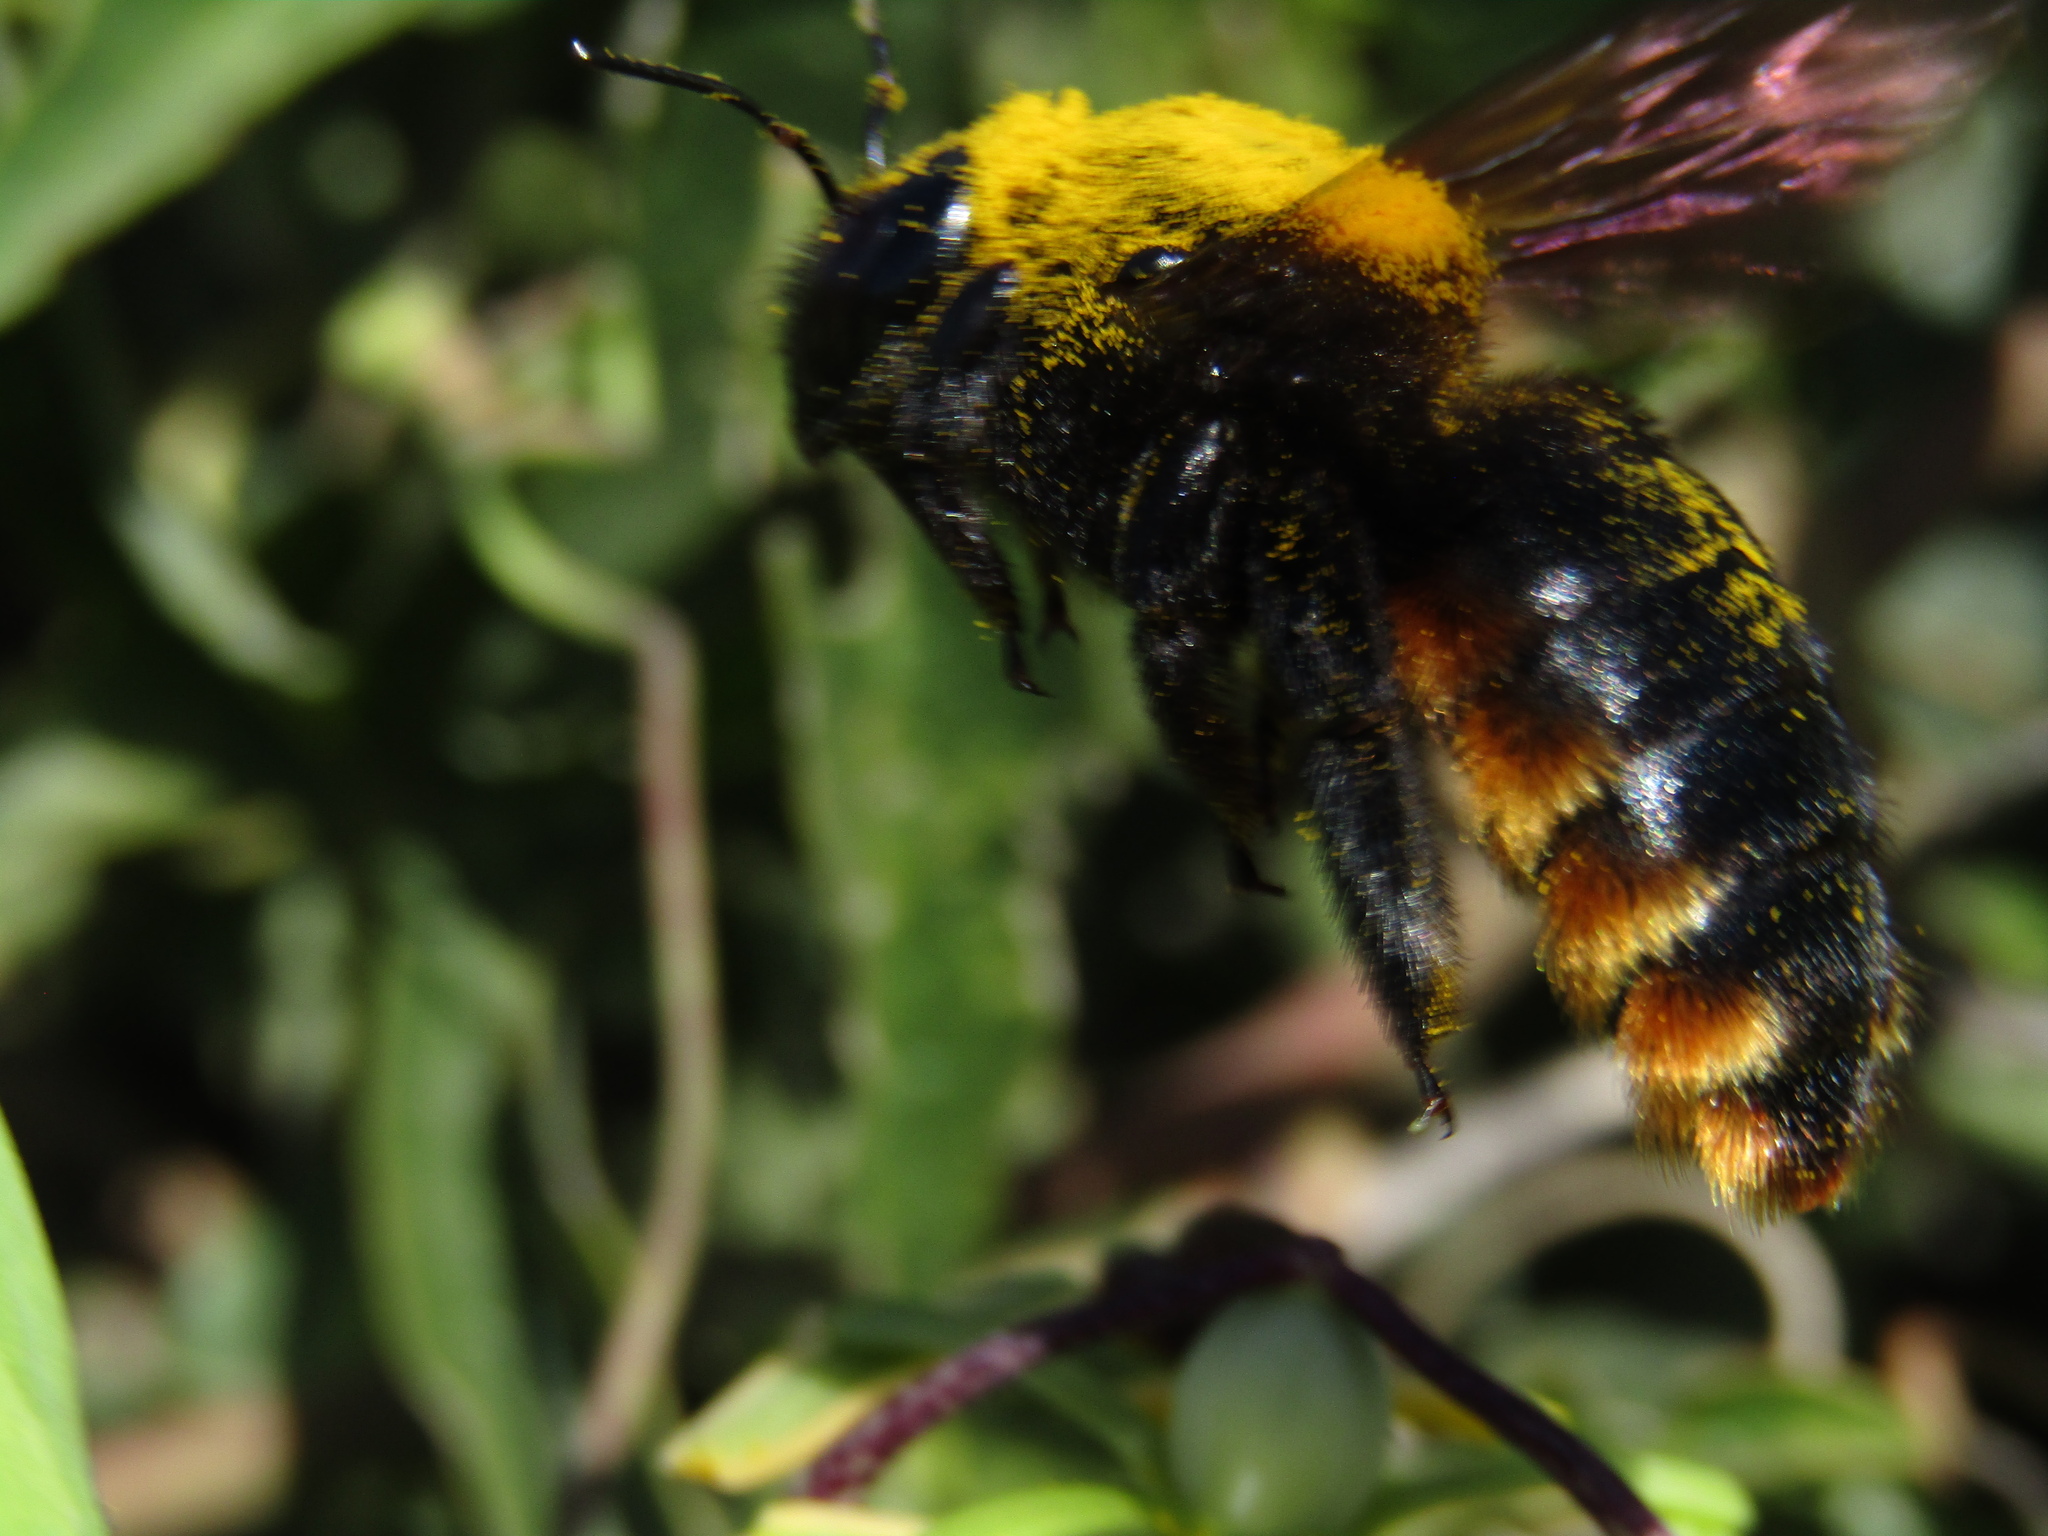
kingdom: Animalia
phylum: Arthropoda
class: Insecta
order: Hymenoptera
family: Apidae
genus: Xylocopa
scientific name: Xylocopa augusti
